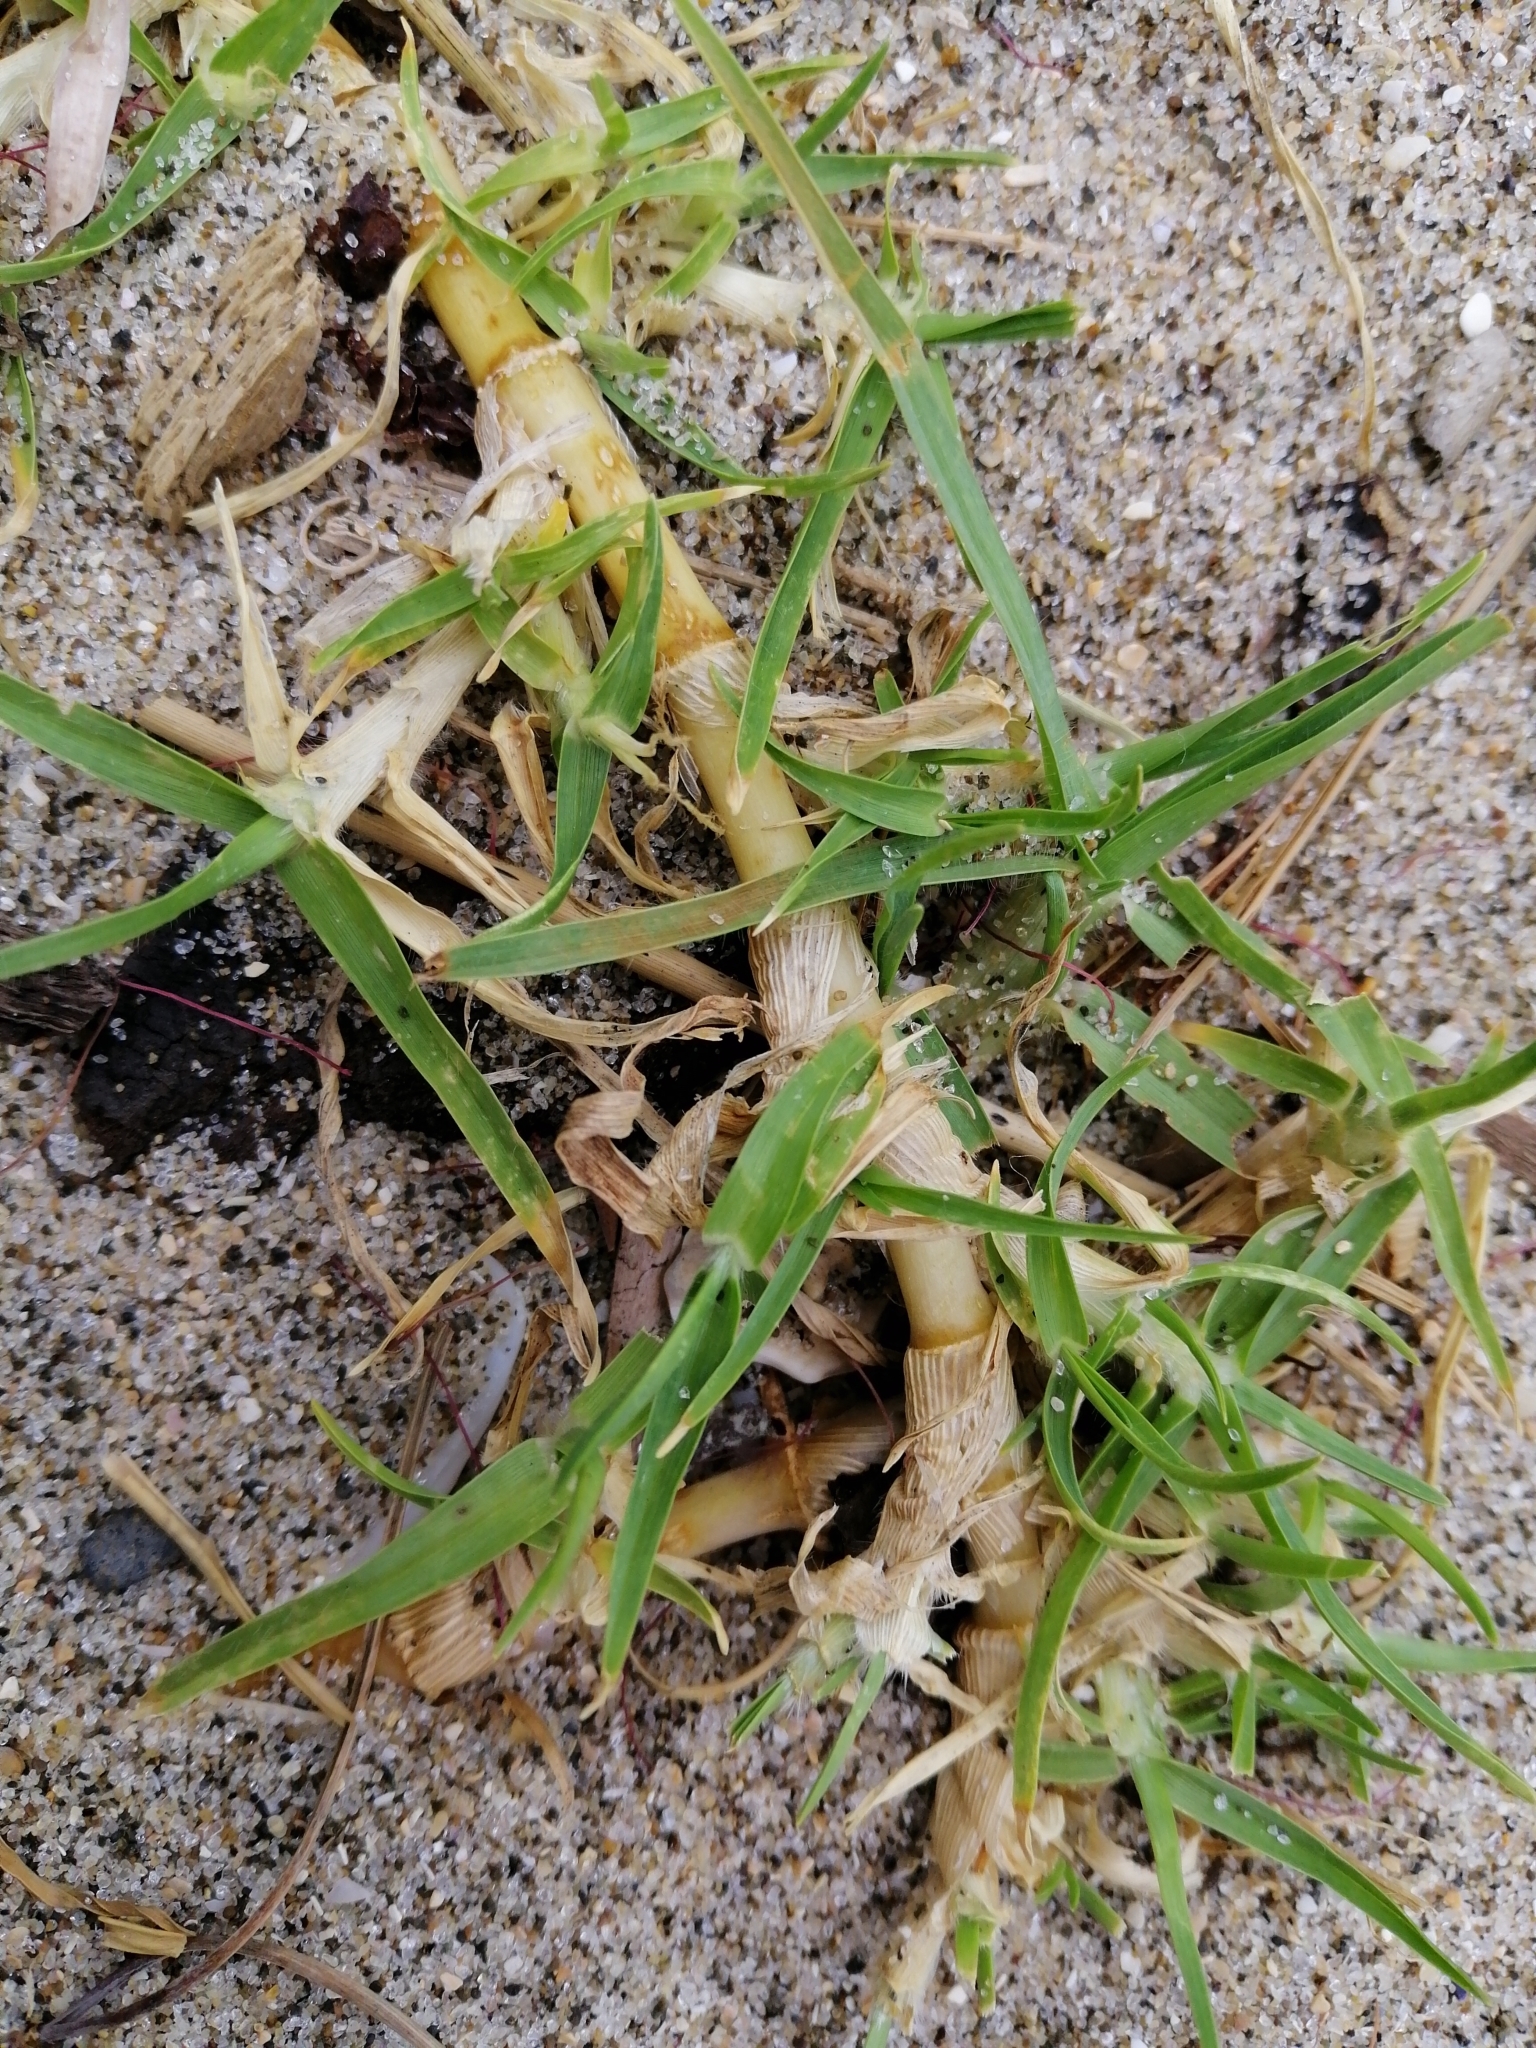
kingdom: Plantae
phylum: Tracheophyta
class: Liliopsida
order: Poales
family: Poaceae
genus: Cenchrus
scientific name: Cenchrus clandestinus
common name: Kikuyugrass
